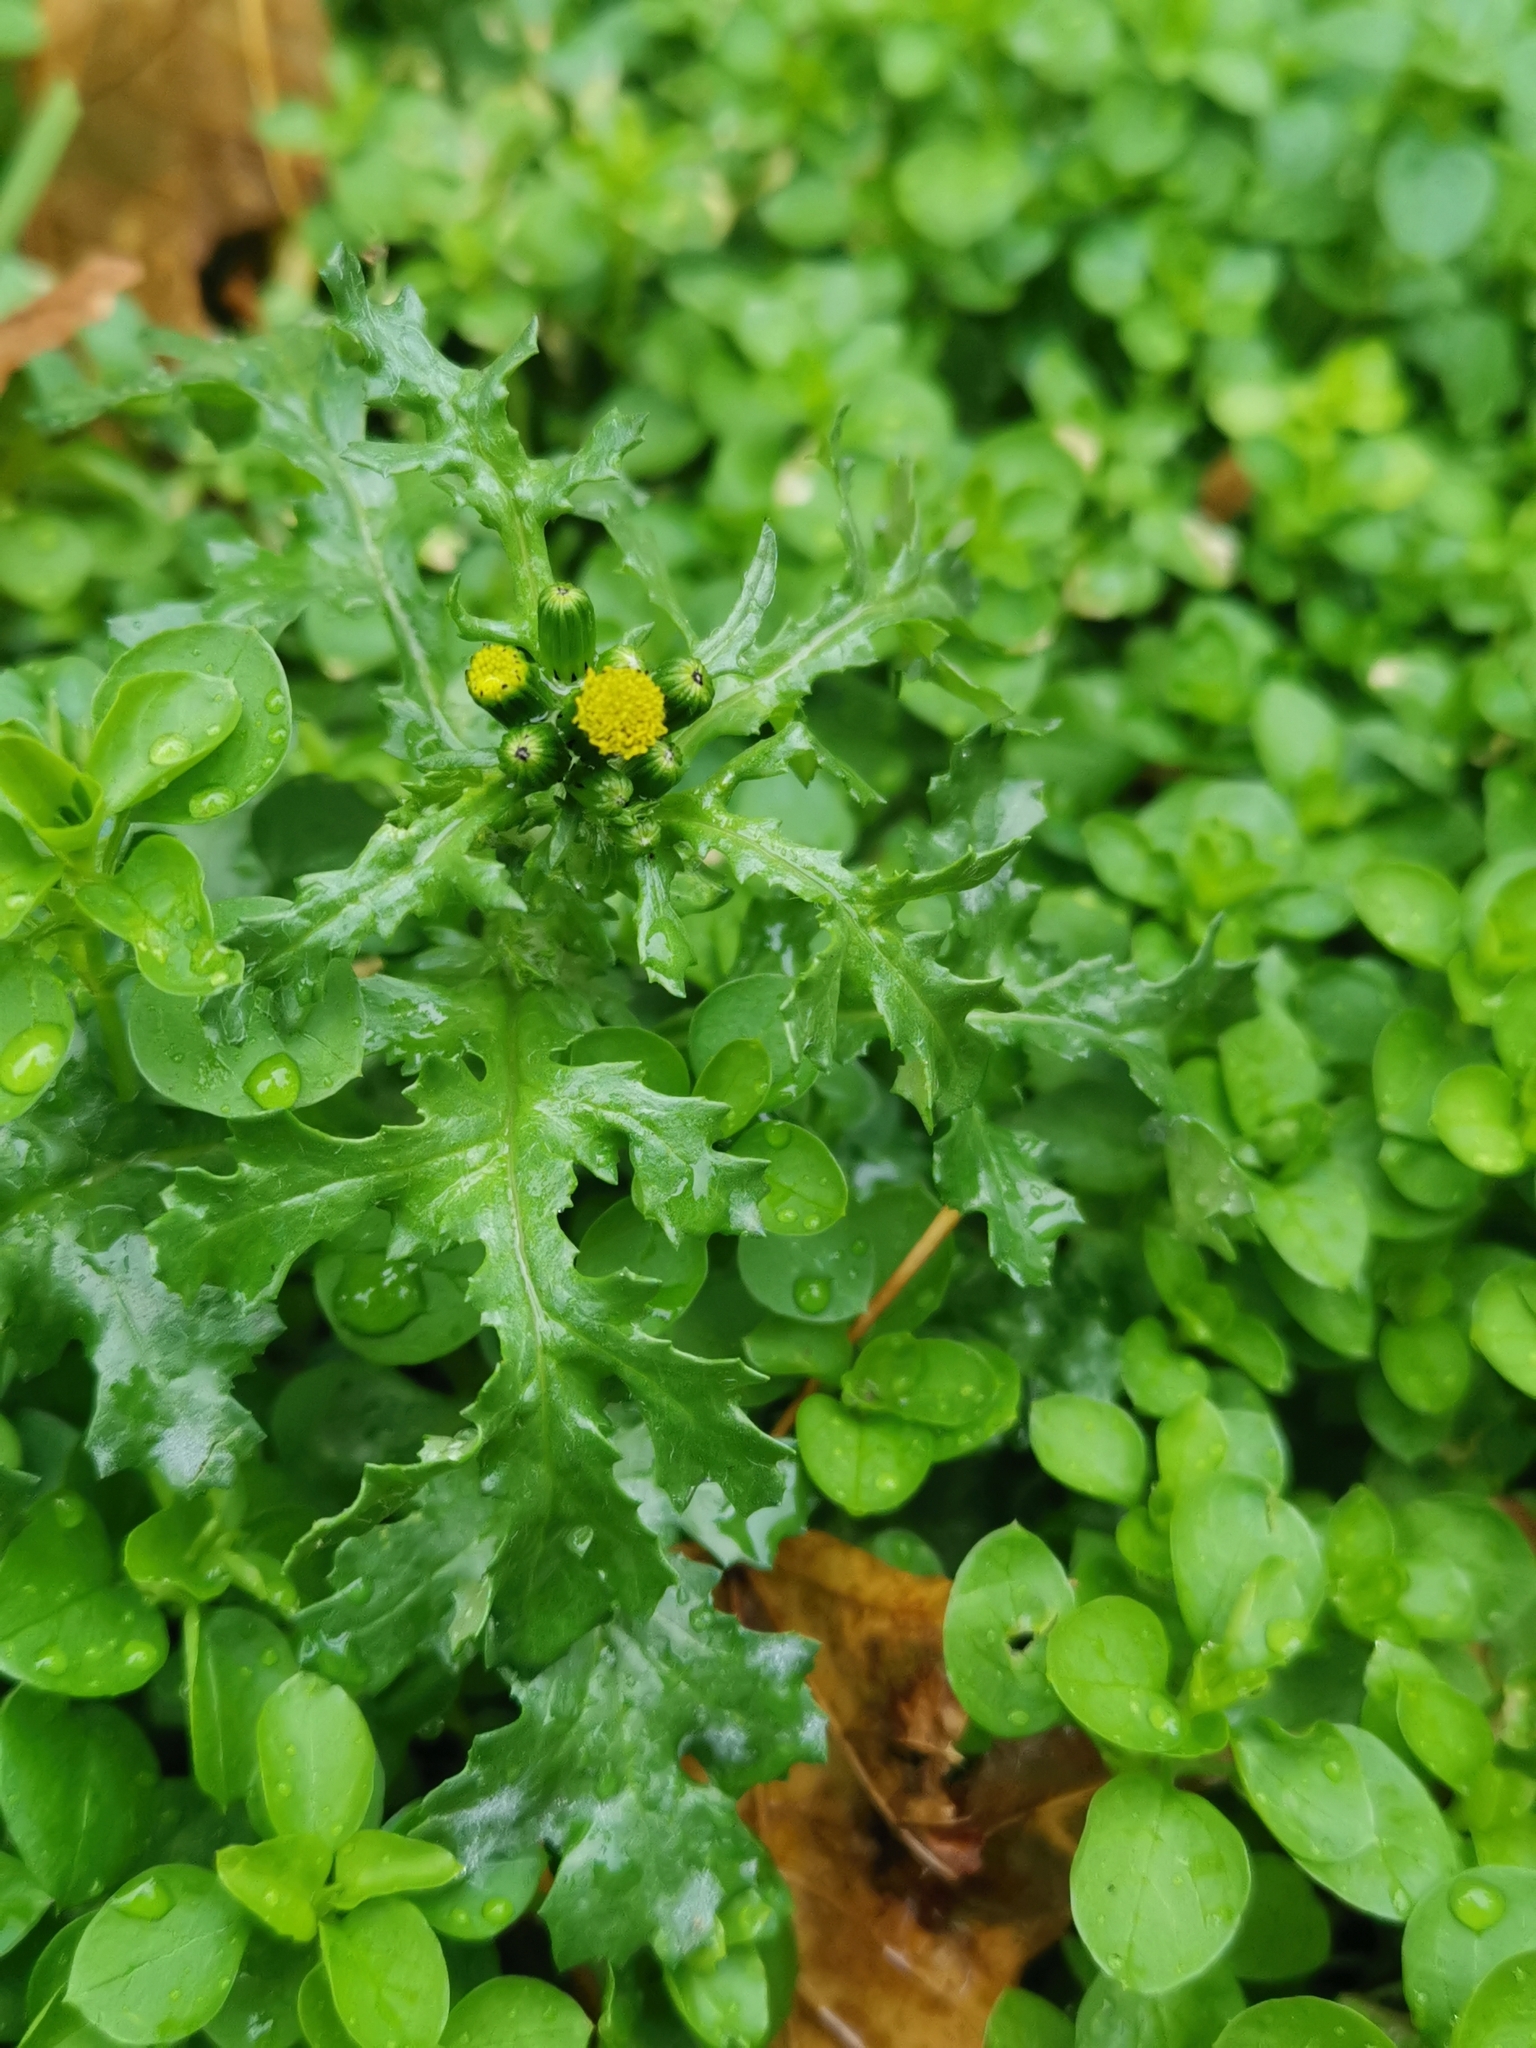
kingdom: Plantae
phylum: Tracheophyta
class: Magnoliopsida
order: Asterales
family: Asteraceae
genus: Senecio
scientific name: Senecio vulgaris
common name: Old-man-in-the-spring
